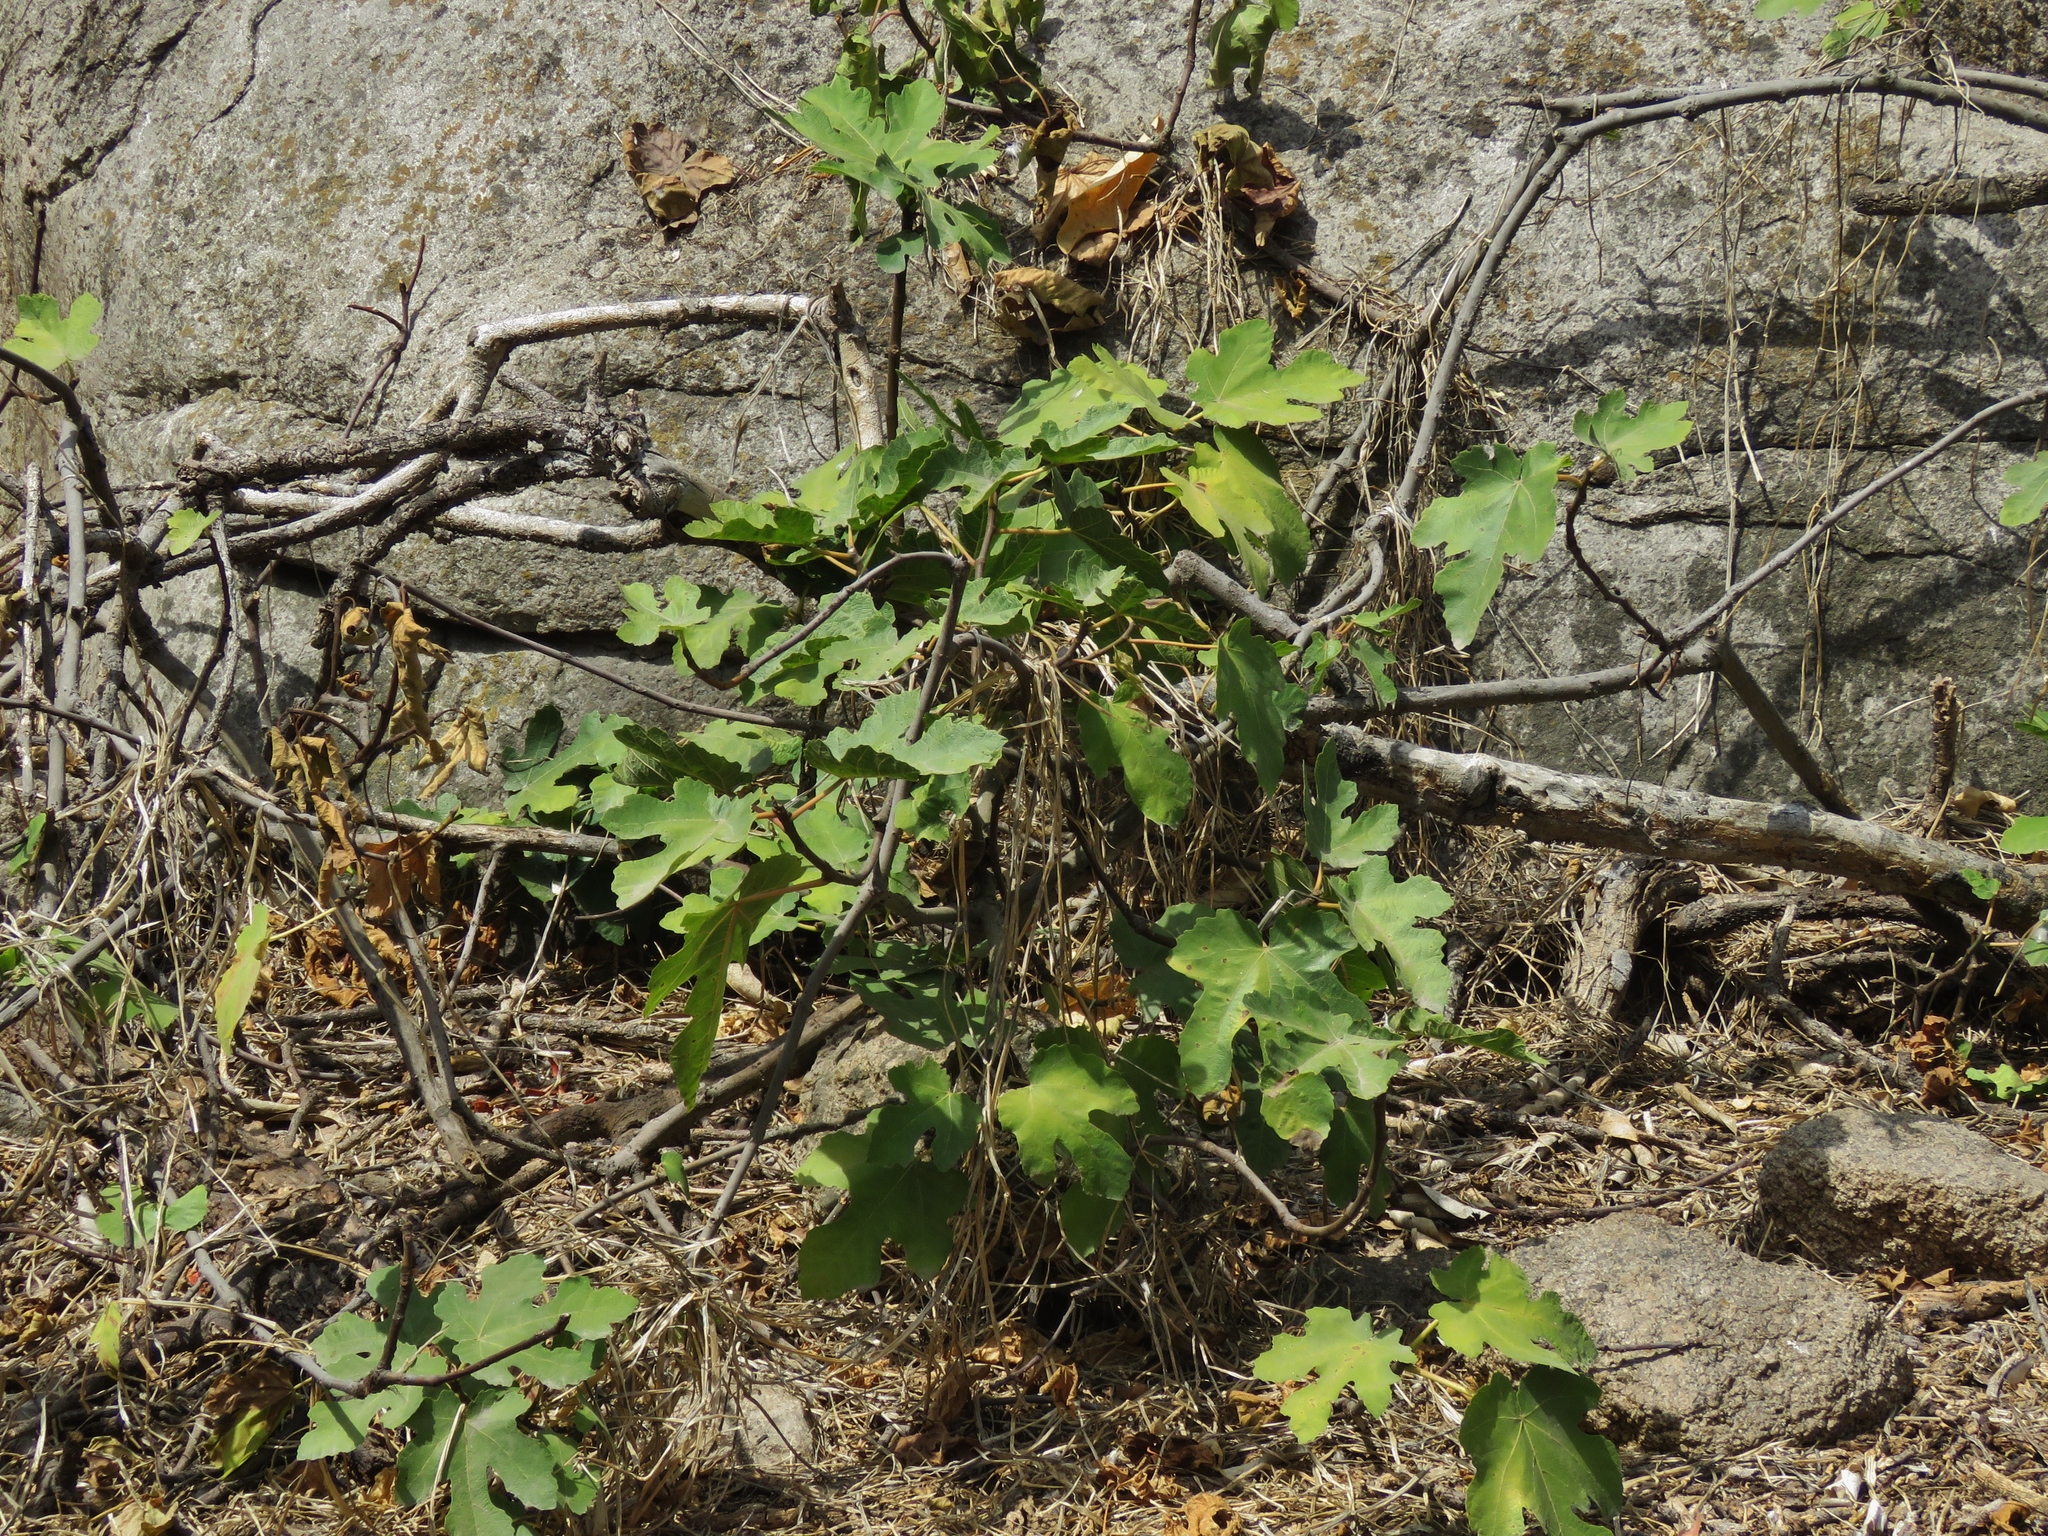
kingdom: Plantae
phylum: Tracheophyta
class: Magnoliopsida
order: Rosales
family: Moraceae
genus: Ficus
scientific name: Ficus carica
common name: Fig
